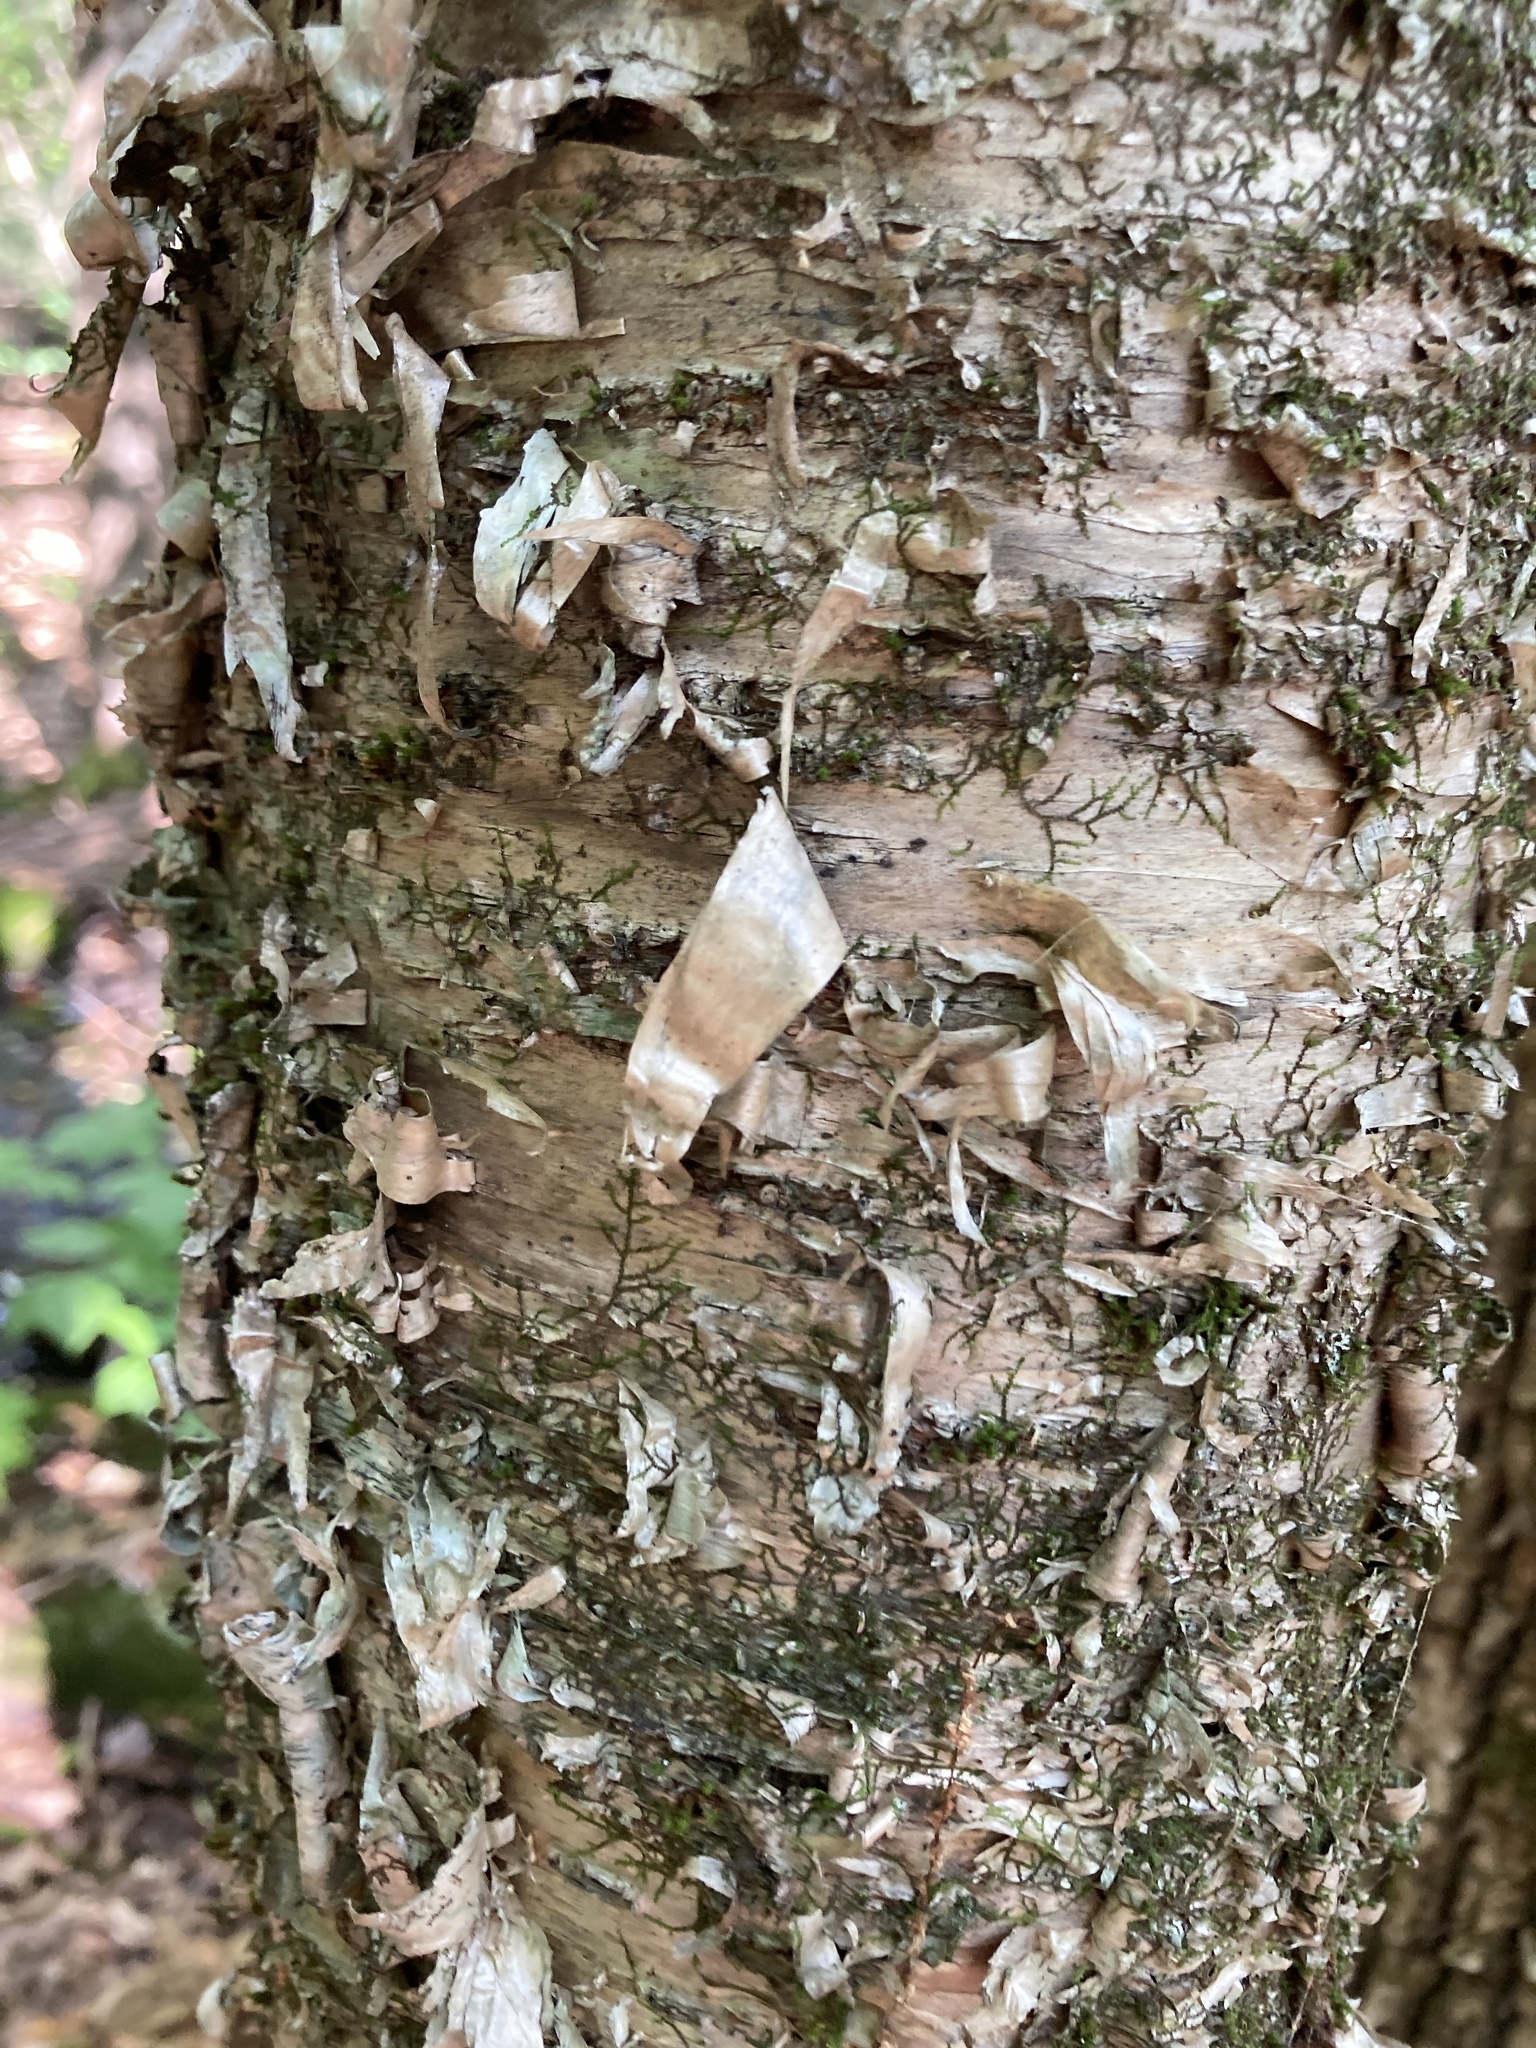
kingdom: Plantae
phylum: Tracheophyta
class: Magnoliopsida
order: Fagales
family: Betulaceae
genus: Betula
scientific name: Betula alleghaniensis
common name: Yellow birch
